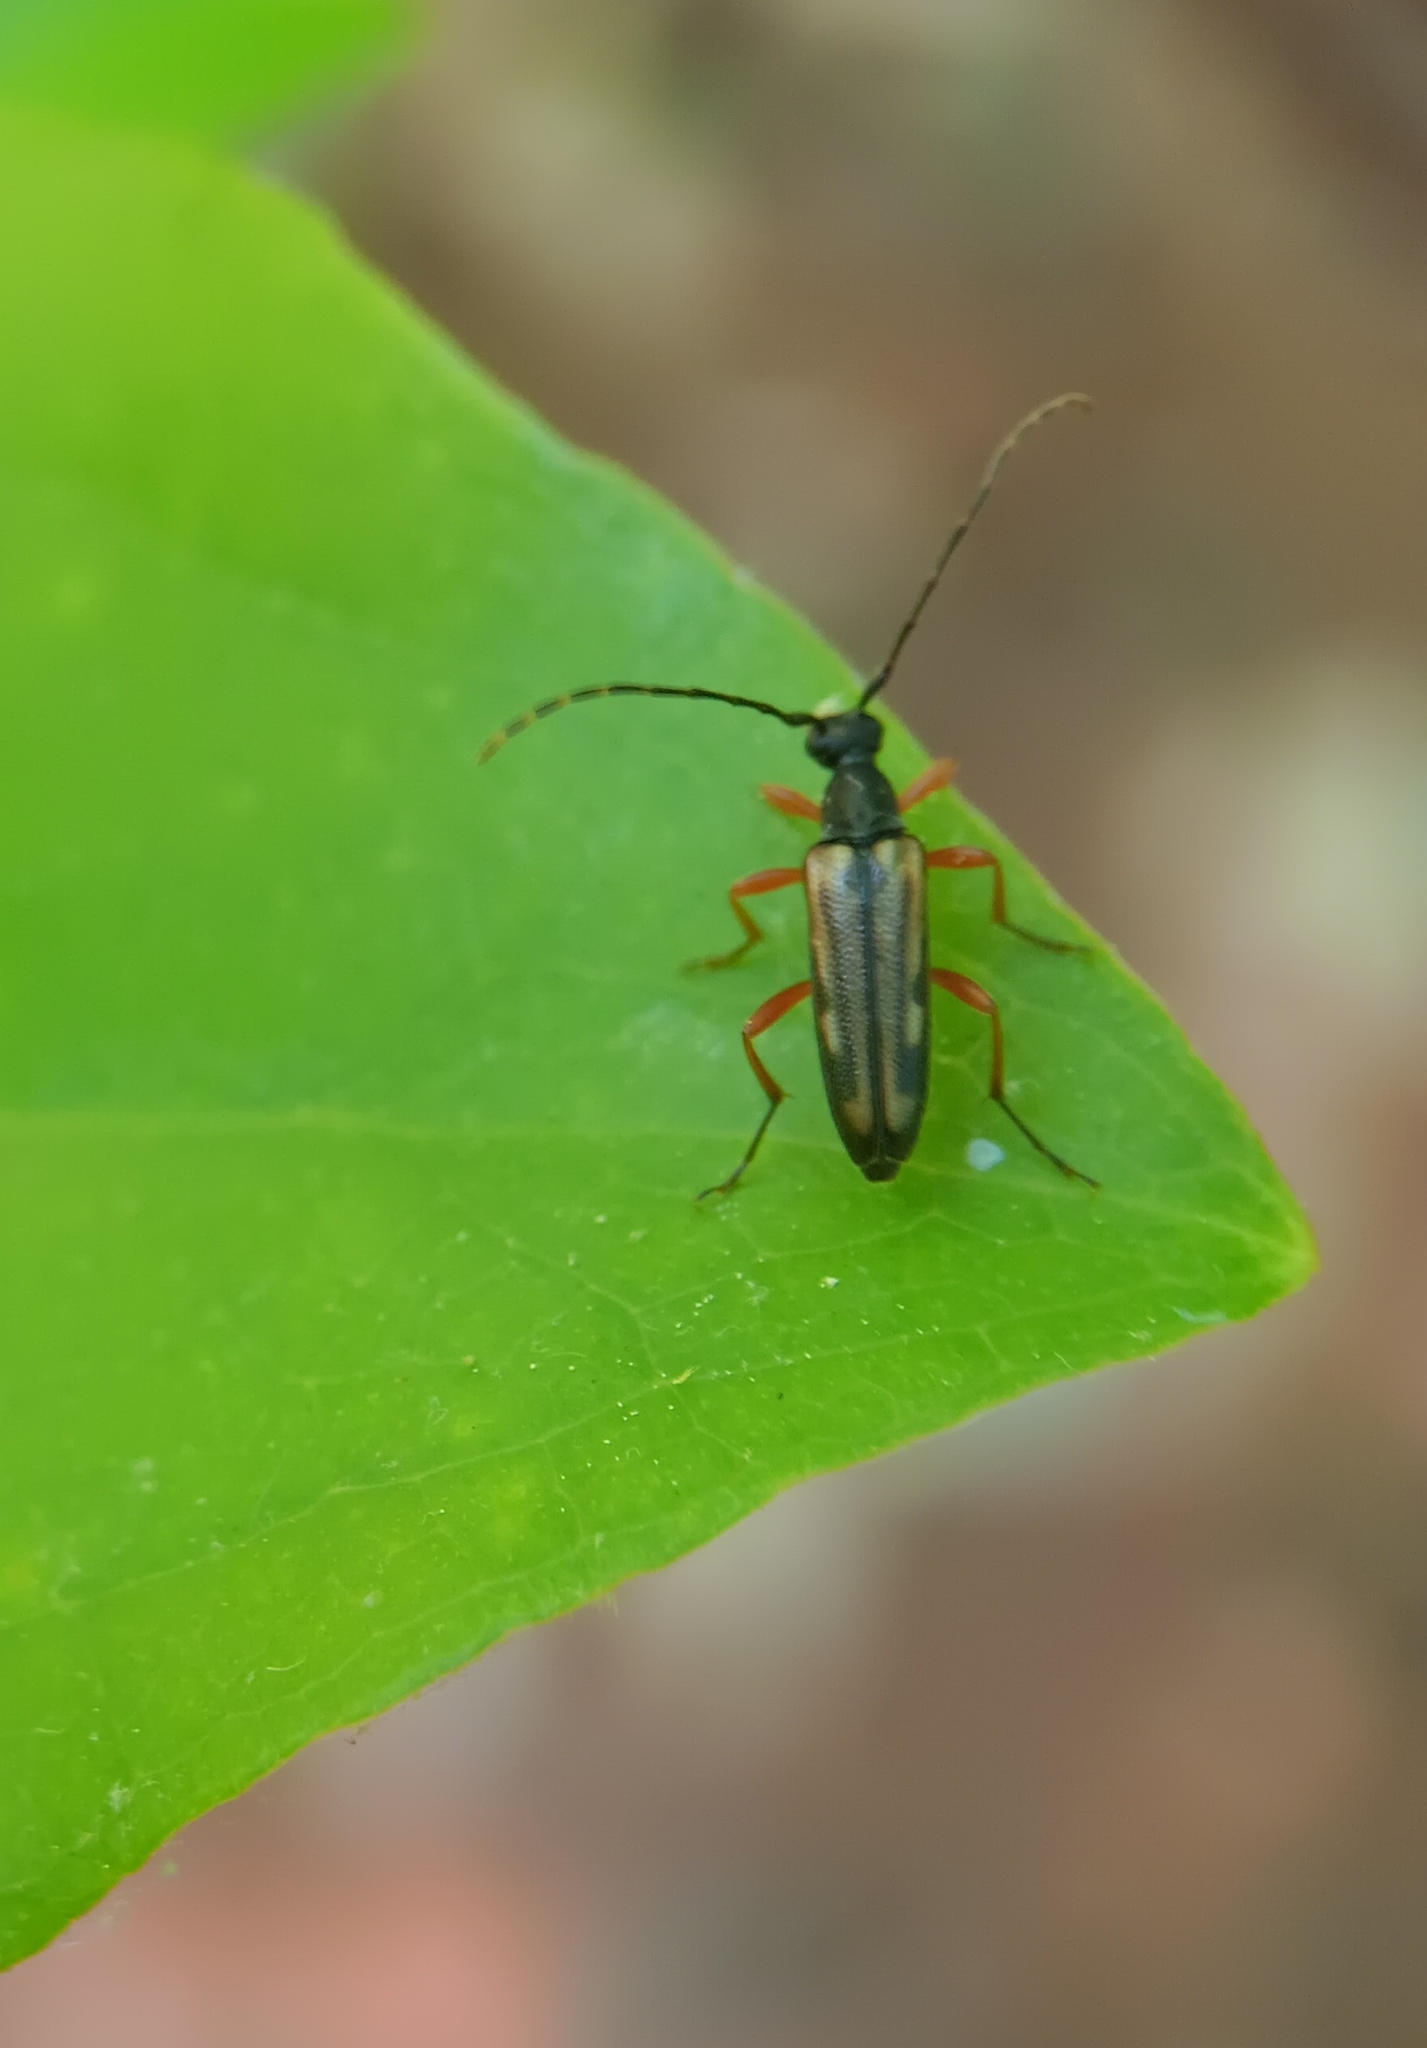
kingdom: Animalia
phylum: Arthropoda
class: Insecta
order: Coleoptera
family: Cerambycidae
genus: Analeptura
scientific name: Analeptura lineola
